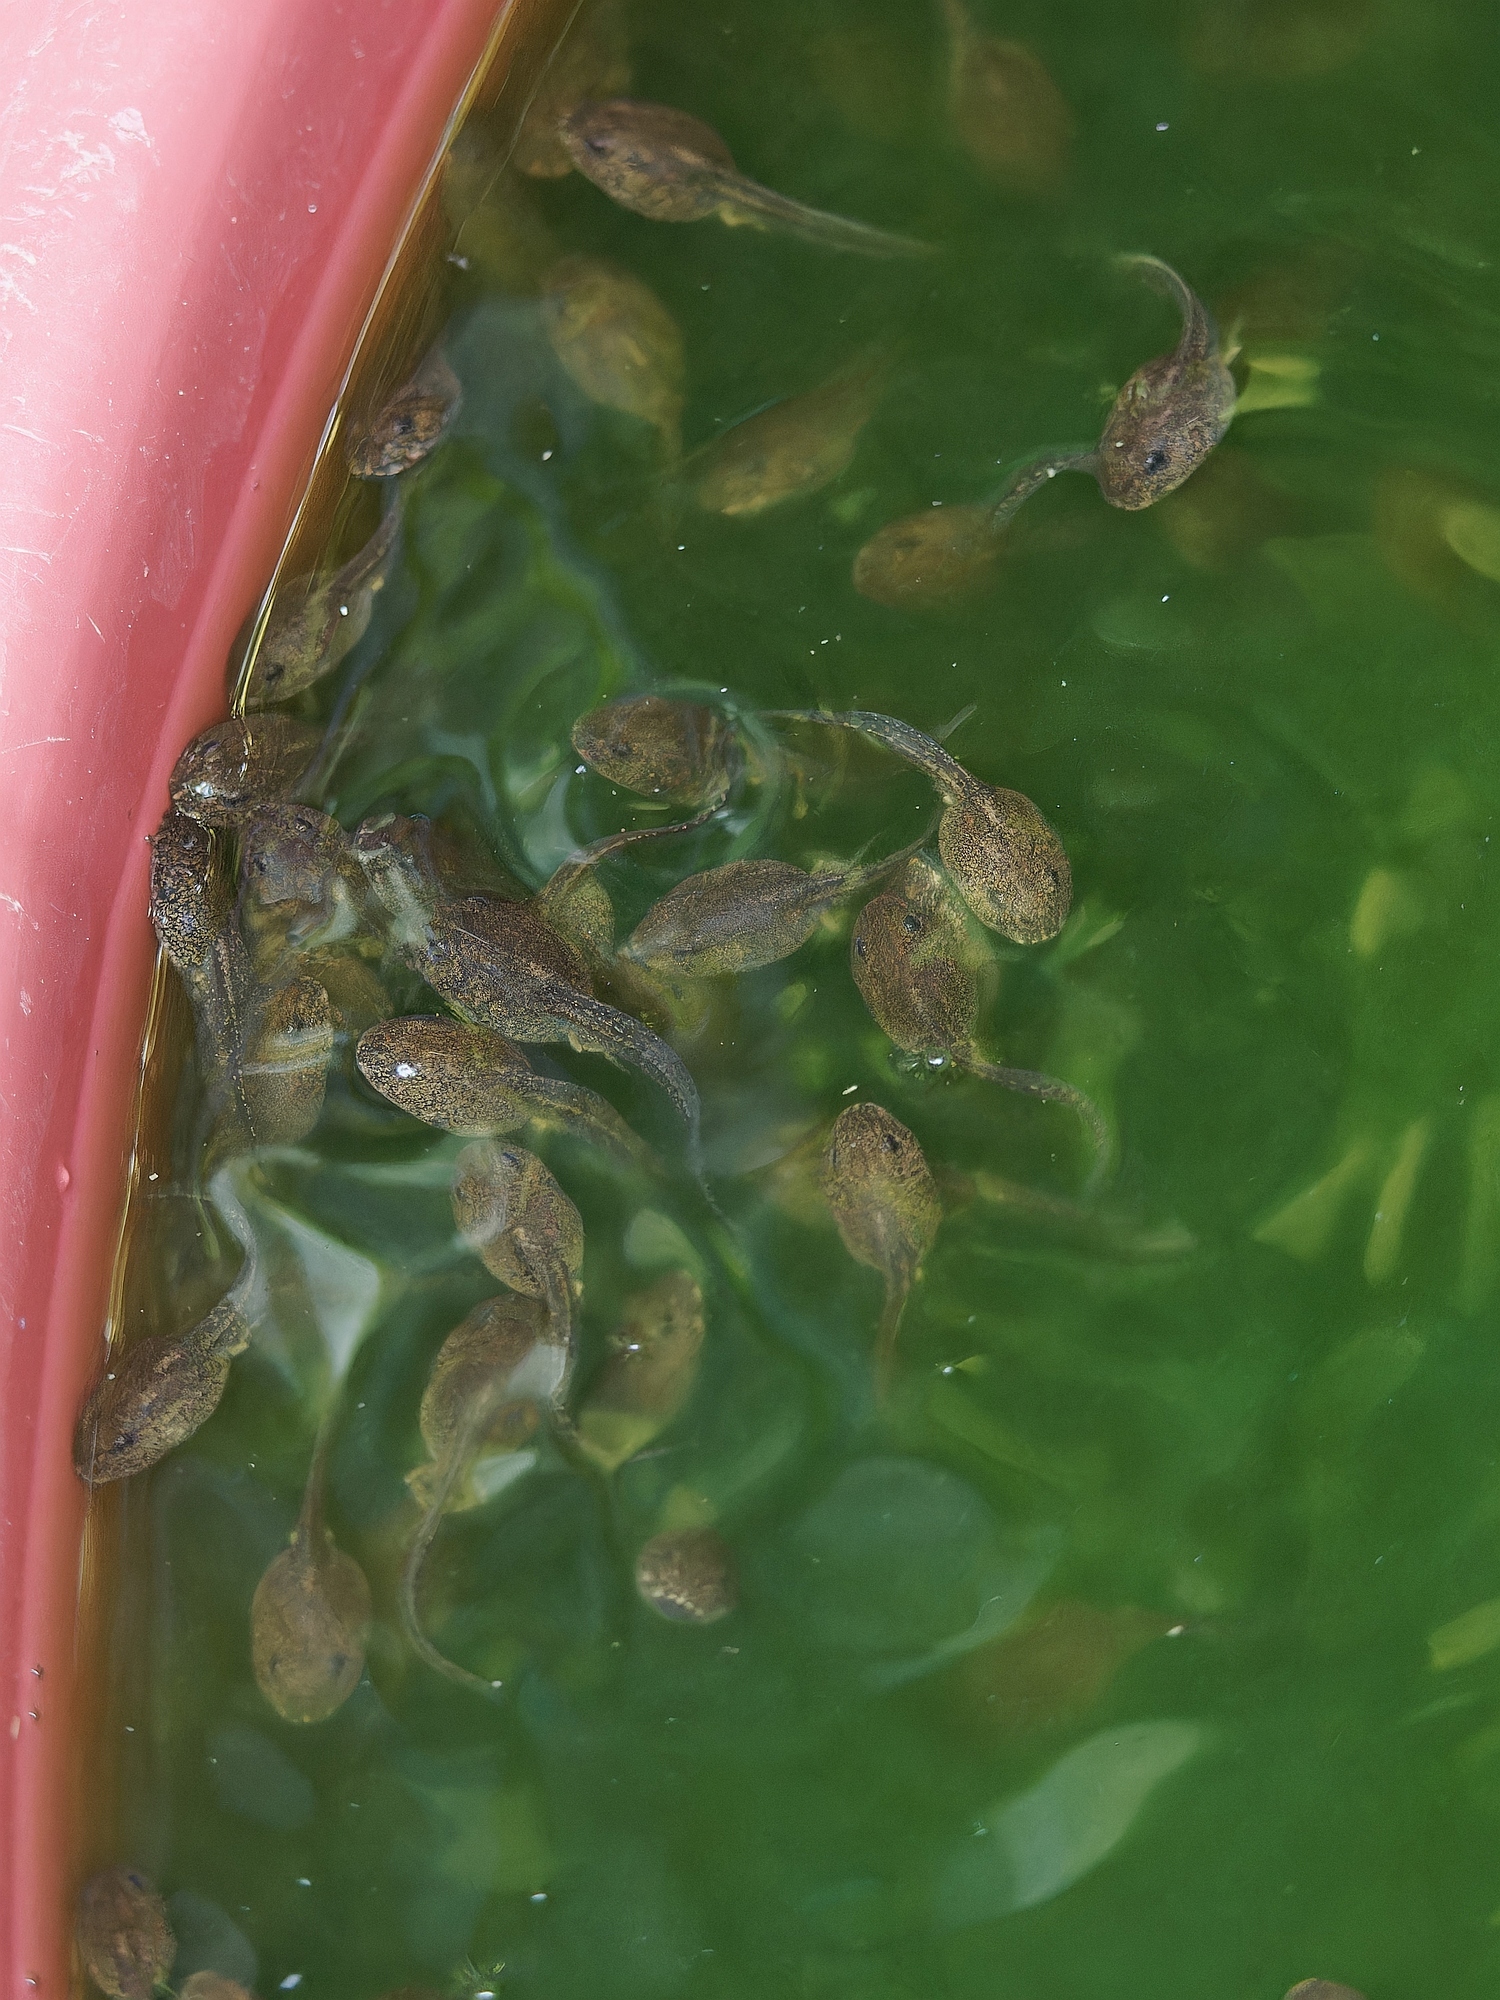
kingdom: Animalia
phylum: Chordata
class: Amphibia
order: Anura
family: Ranidae
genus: Rana
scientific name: Rana latastei
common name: Italian agile frog
